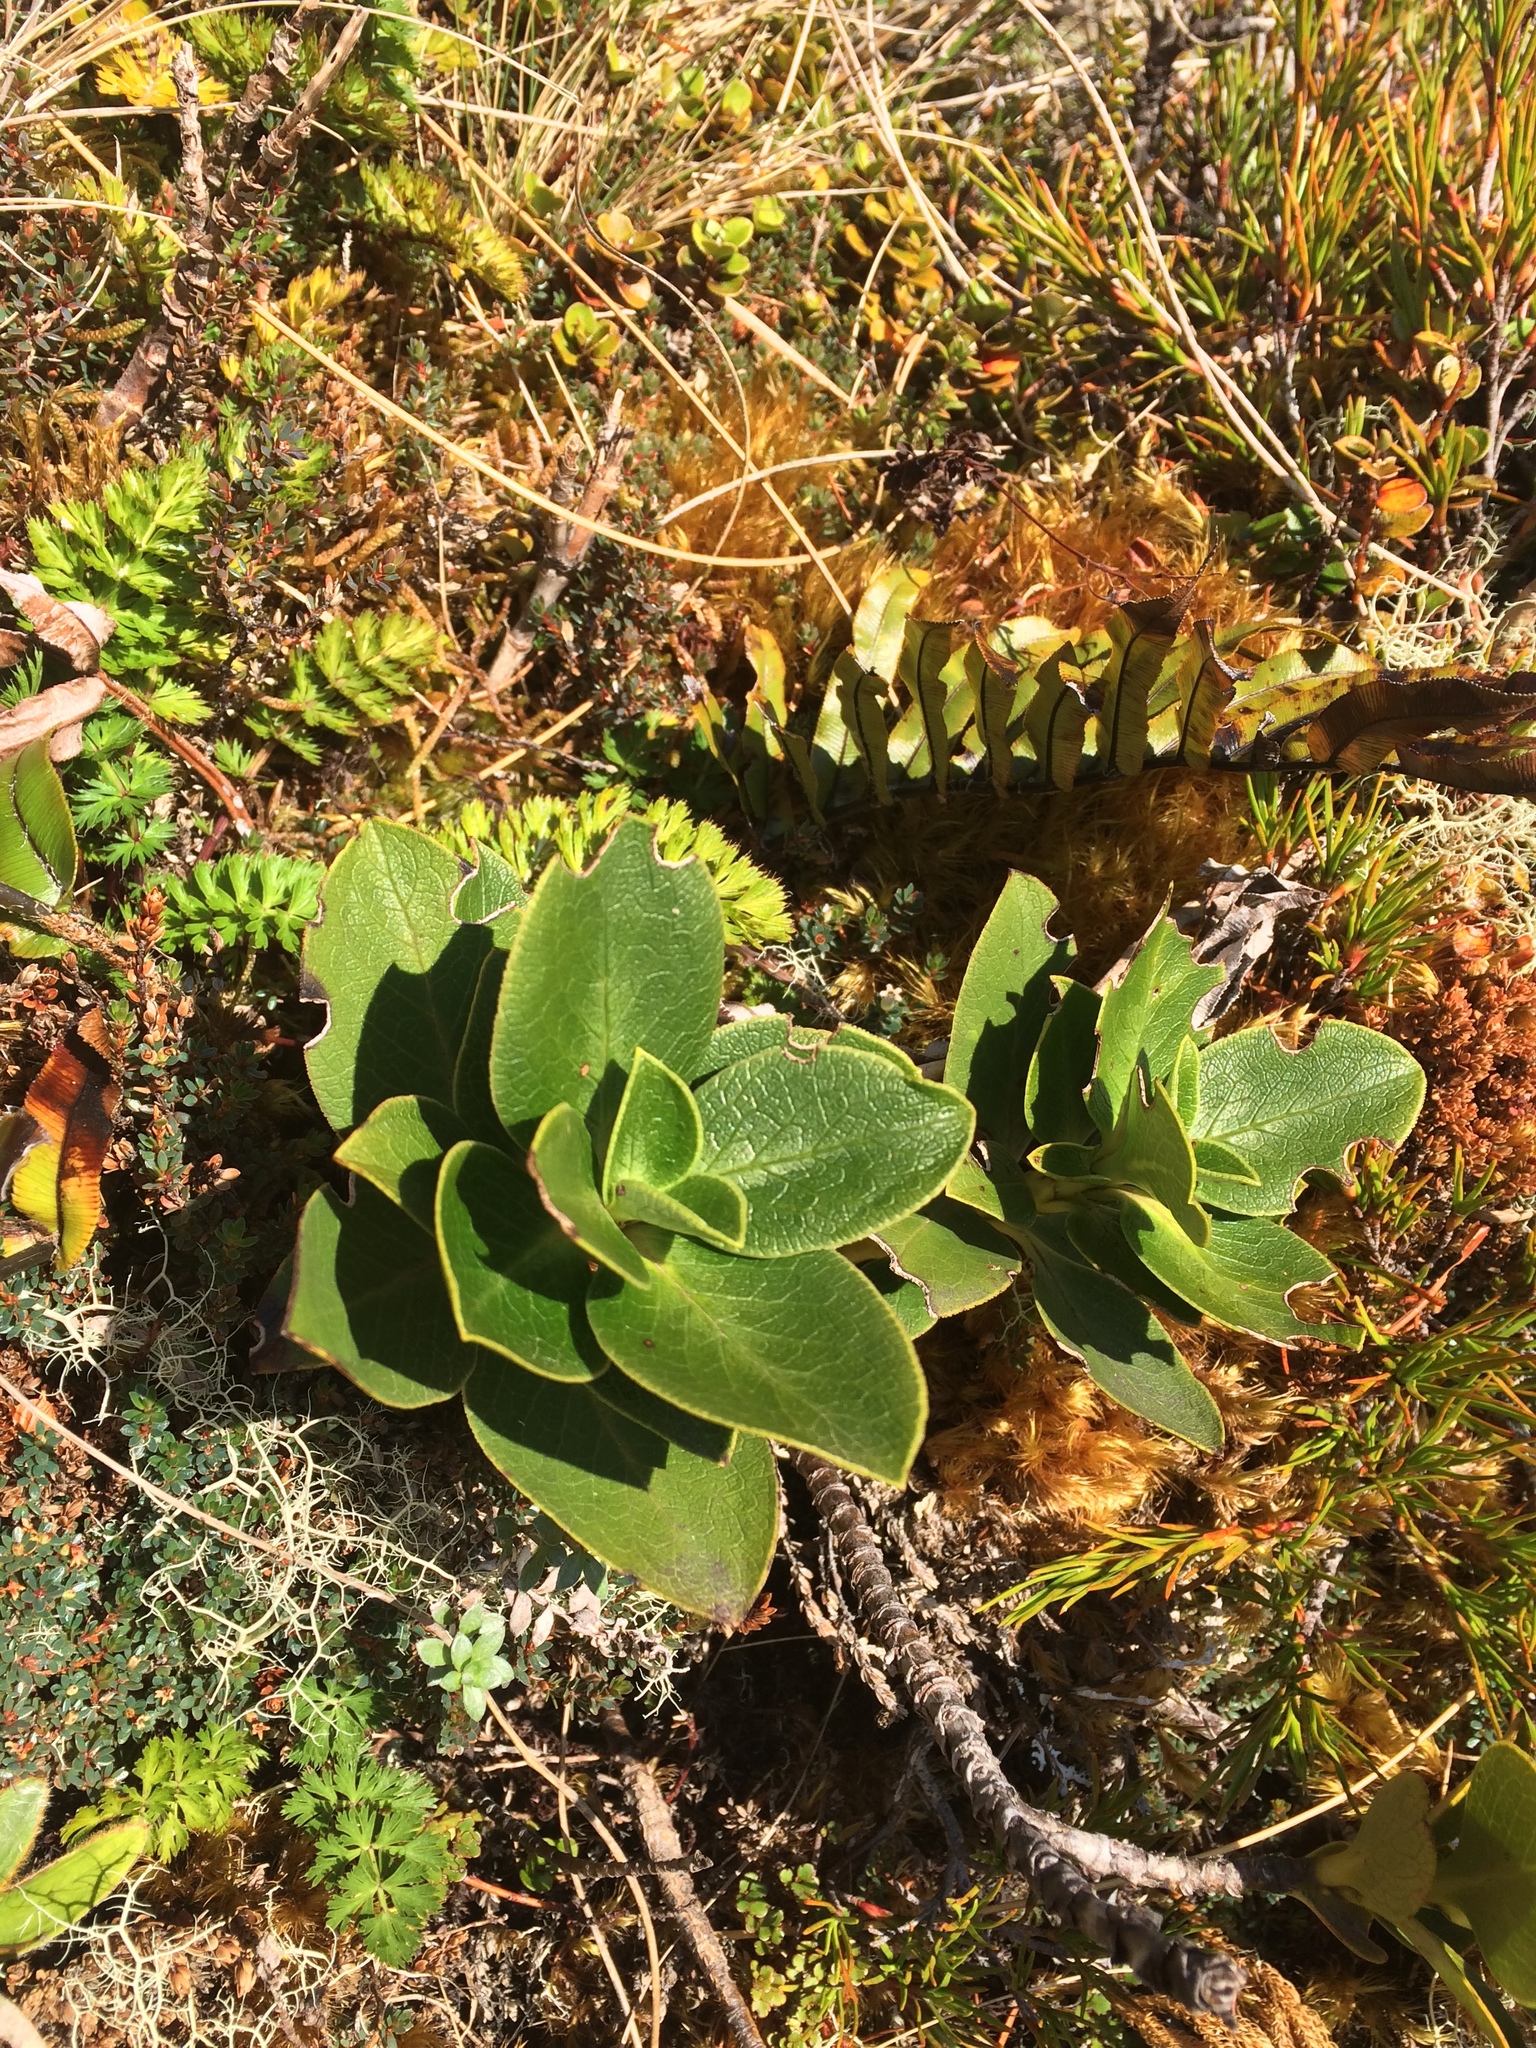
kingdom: Plantae
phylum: Tracheophyta
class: Magnoliopsida
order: Gentianales
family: Rubiaceae
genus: Coprosma
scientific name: Coprosma serrulata
